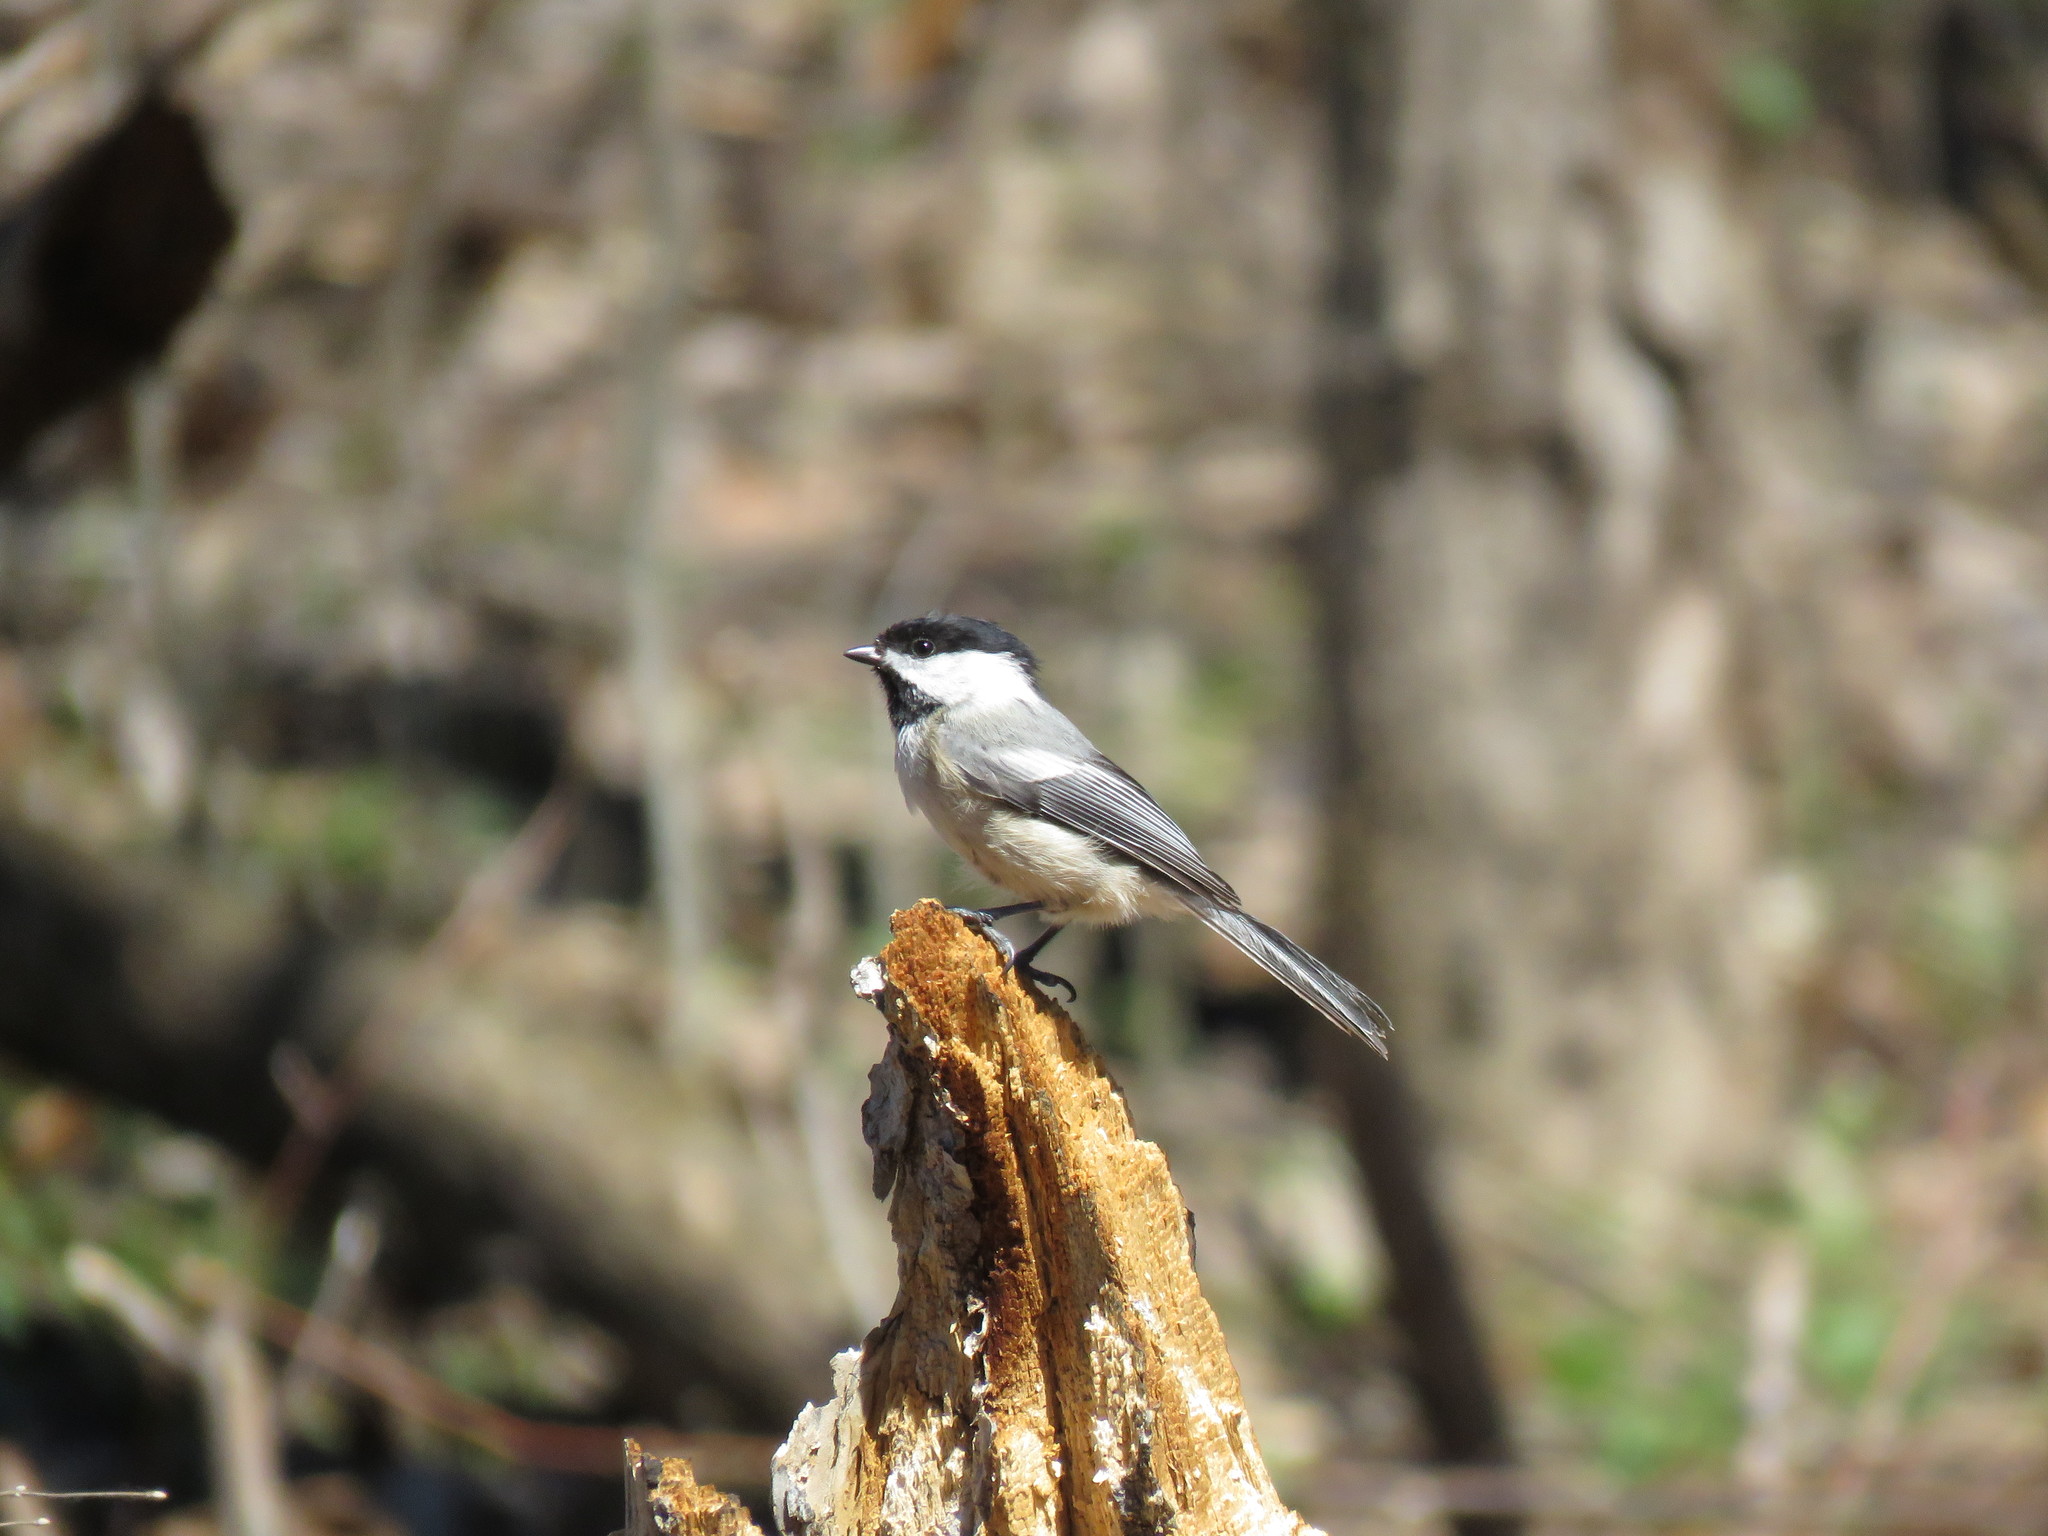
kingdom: Animalia
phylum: Chordata
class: Aves
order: Passeriformes
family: Paridae
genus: Poecile
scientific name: Poecile atricapillus
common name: Black-capped chickadee
